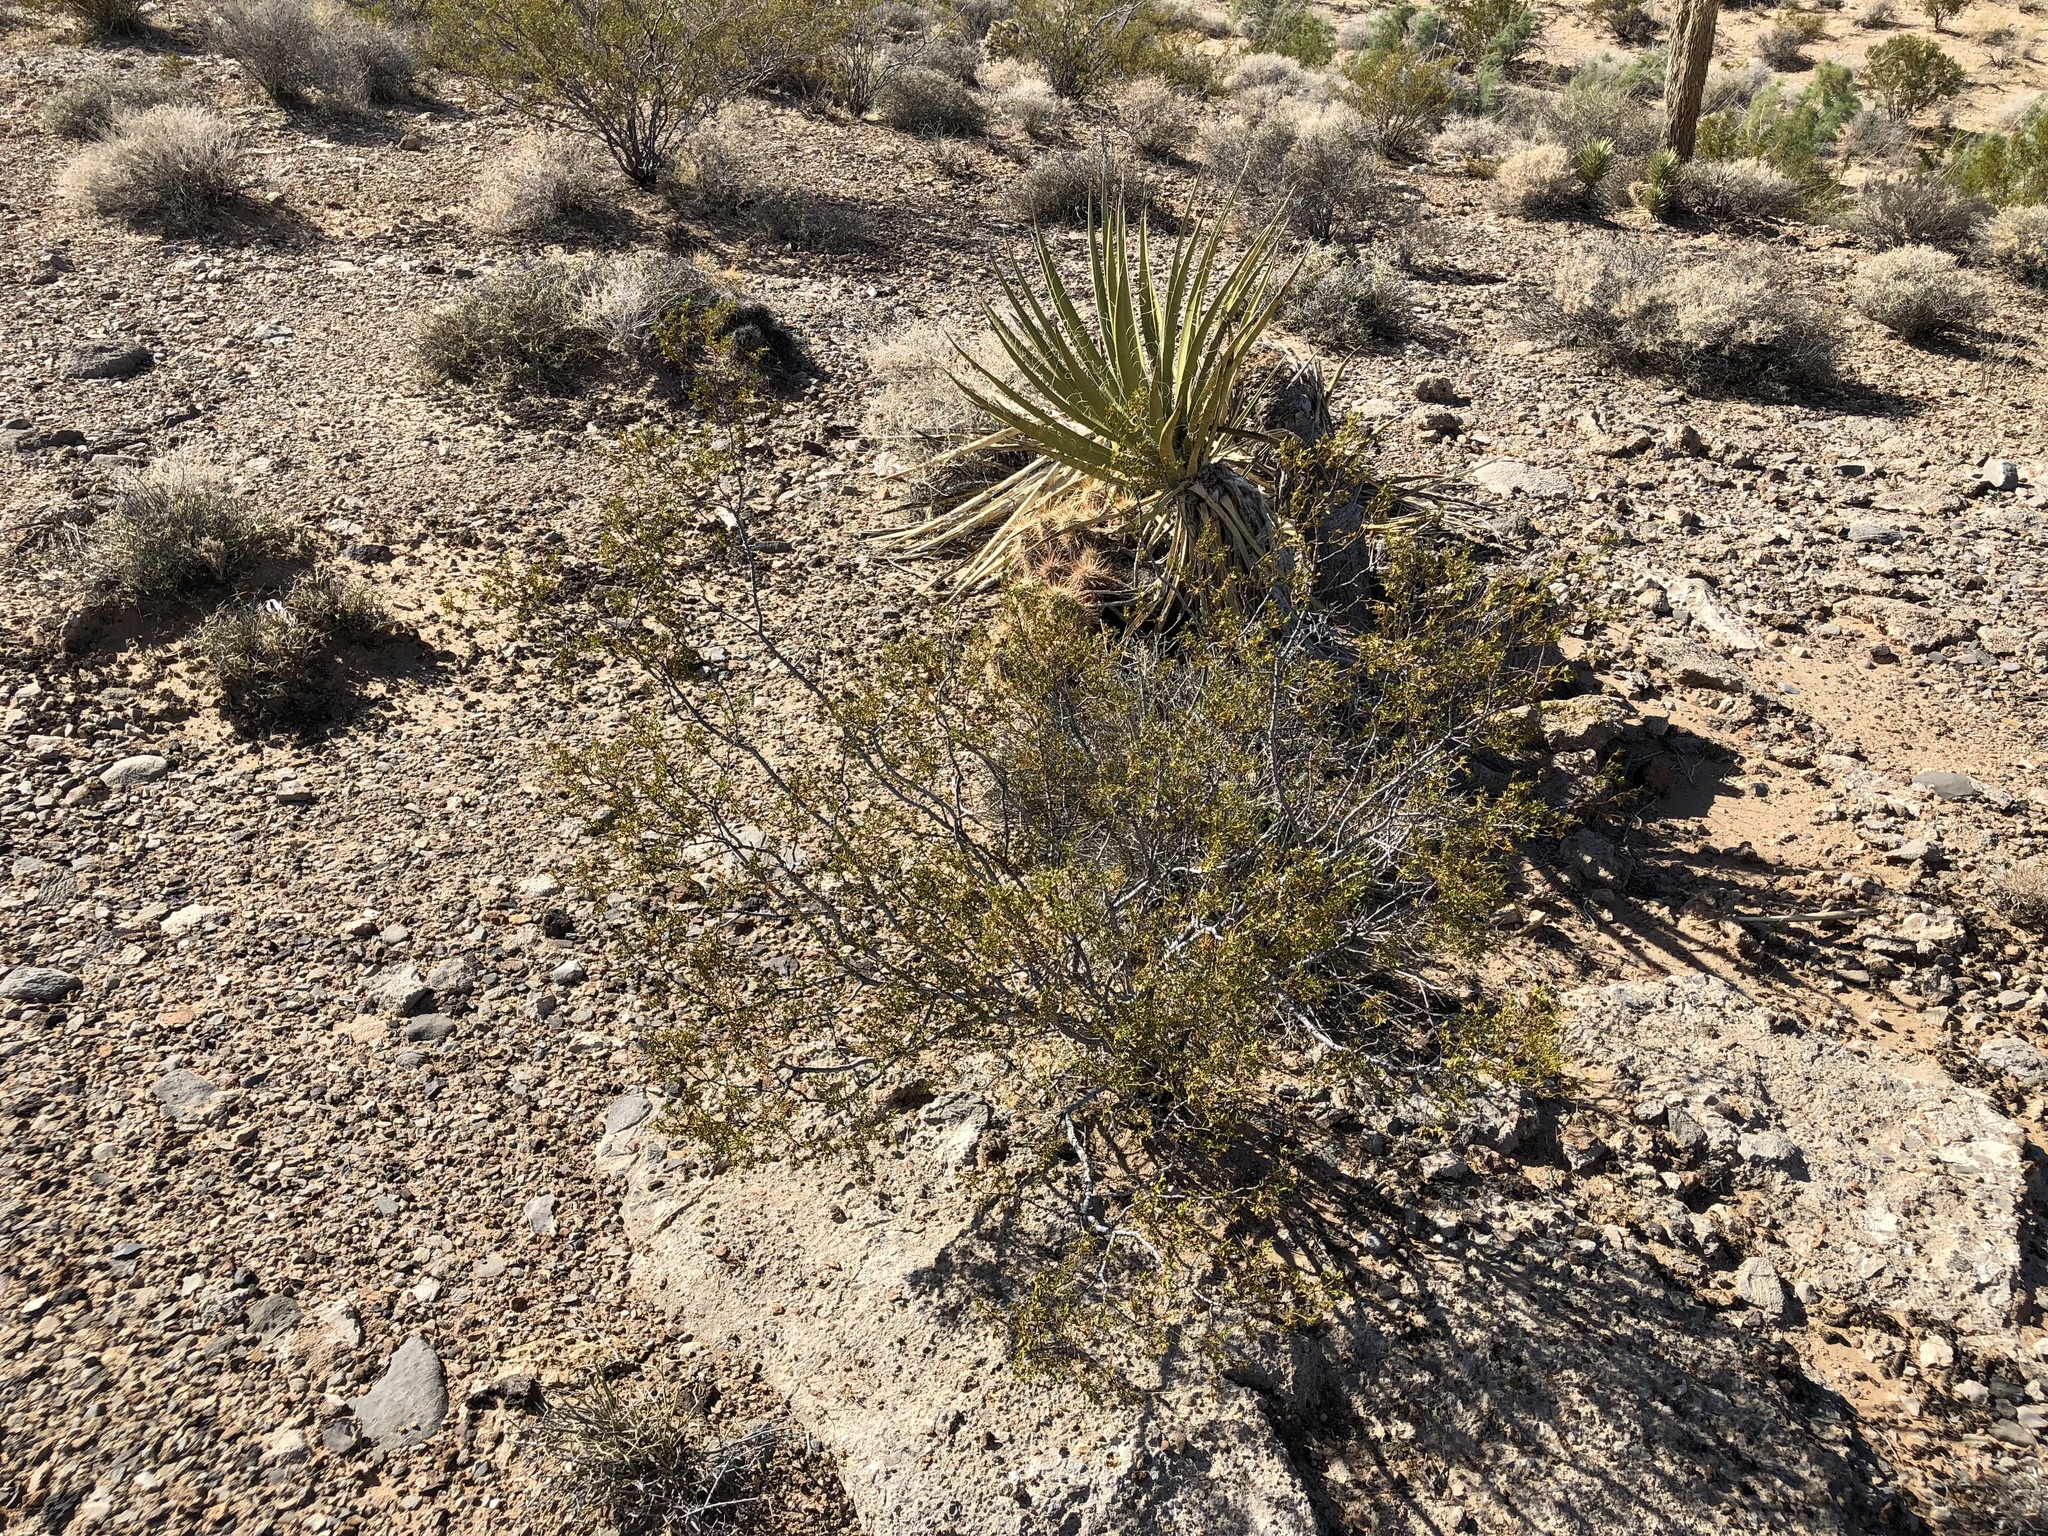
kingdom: Plantae
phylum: Tracheophyta
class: Magnoliopsida
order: Zygophyllales
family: Zygophyllaceae
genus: Larrea
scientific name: Larrea tridentata
